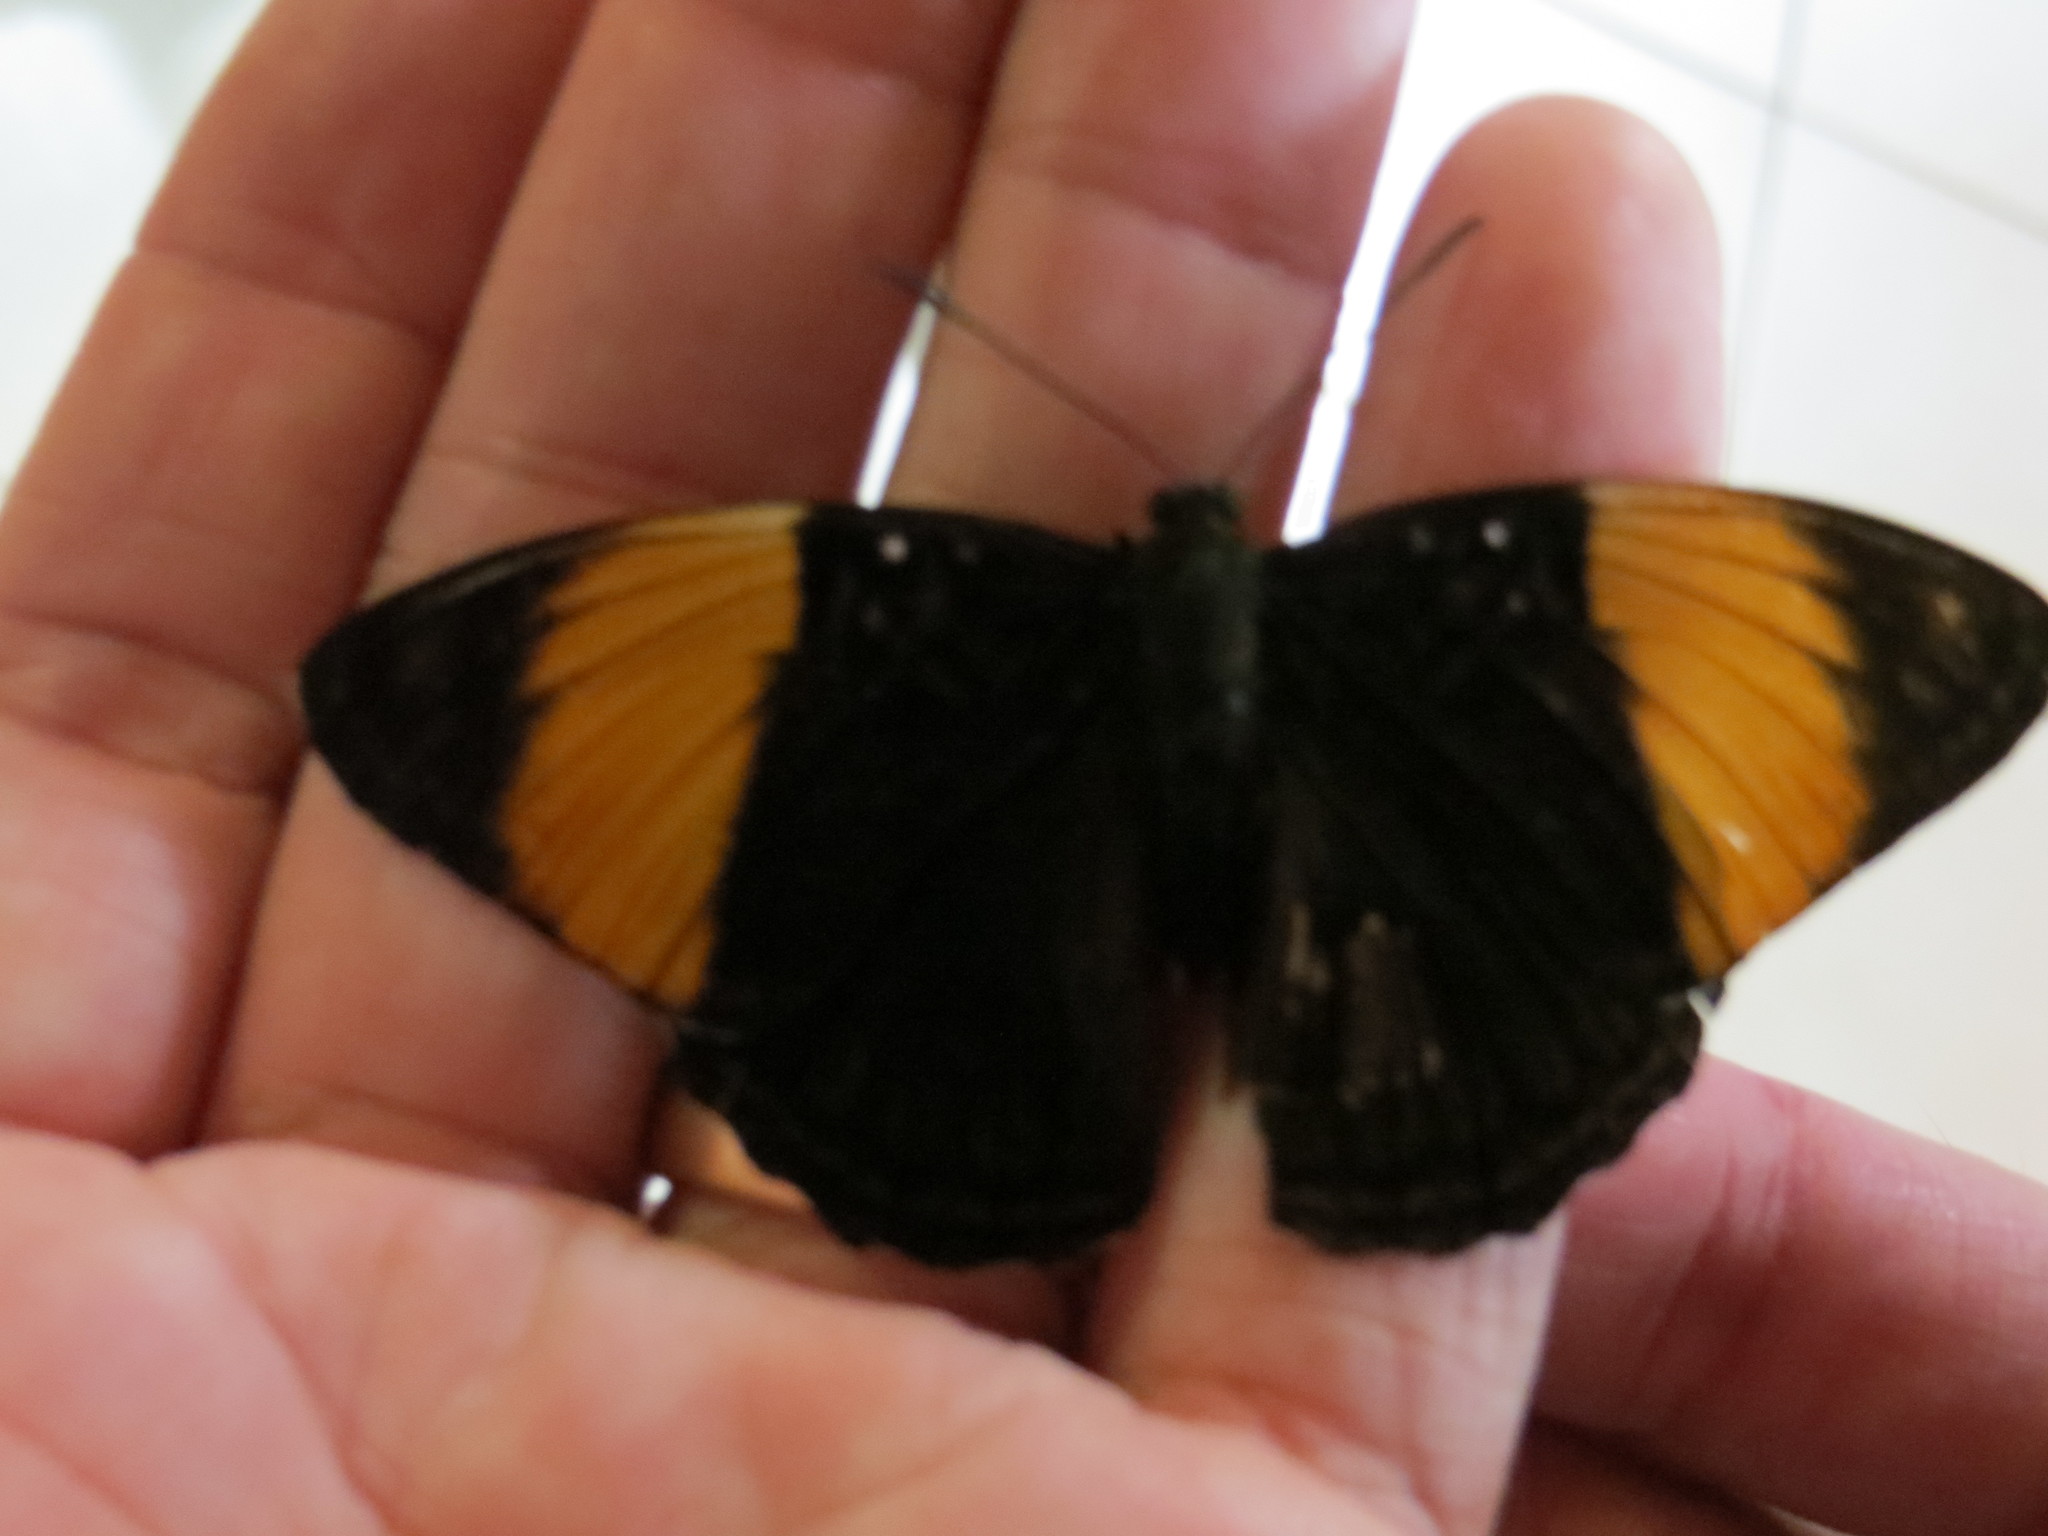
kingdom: Animalia
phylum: Arthropoda
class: Insecta
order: Lepidoptera
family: Nymphalidae
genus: Limenitis
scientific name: Limenitis melanthe
